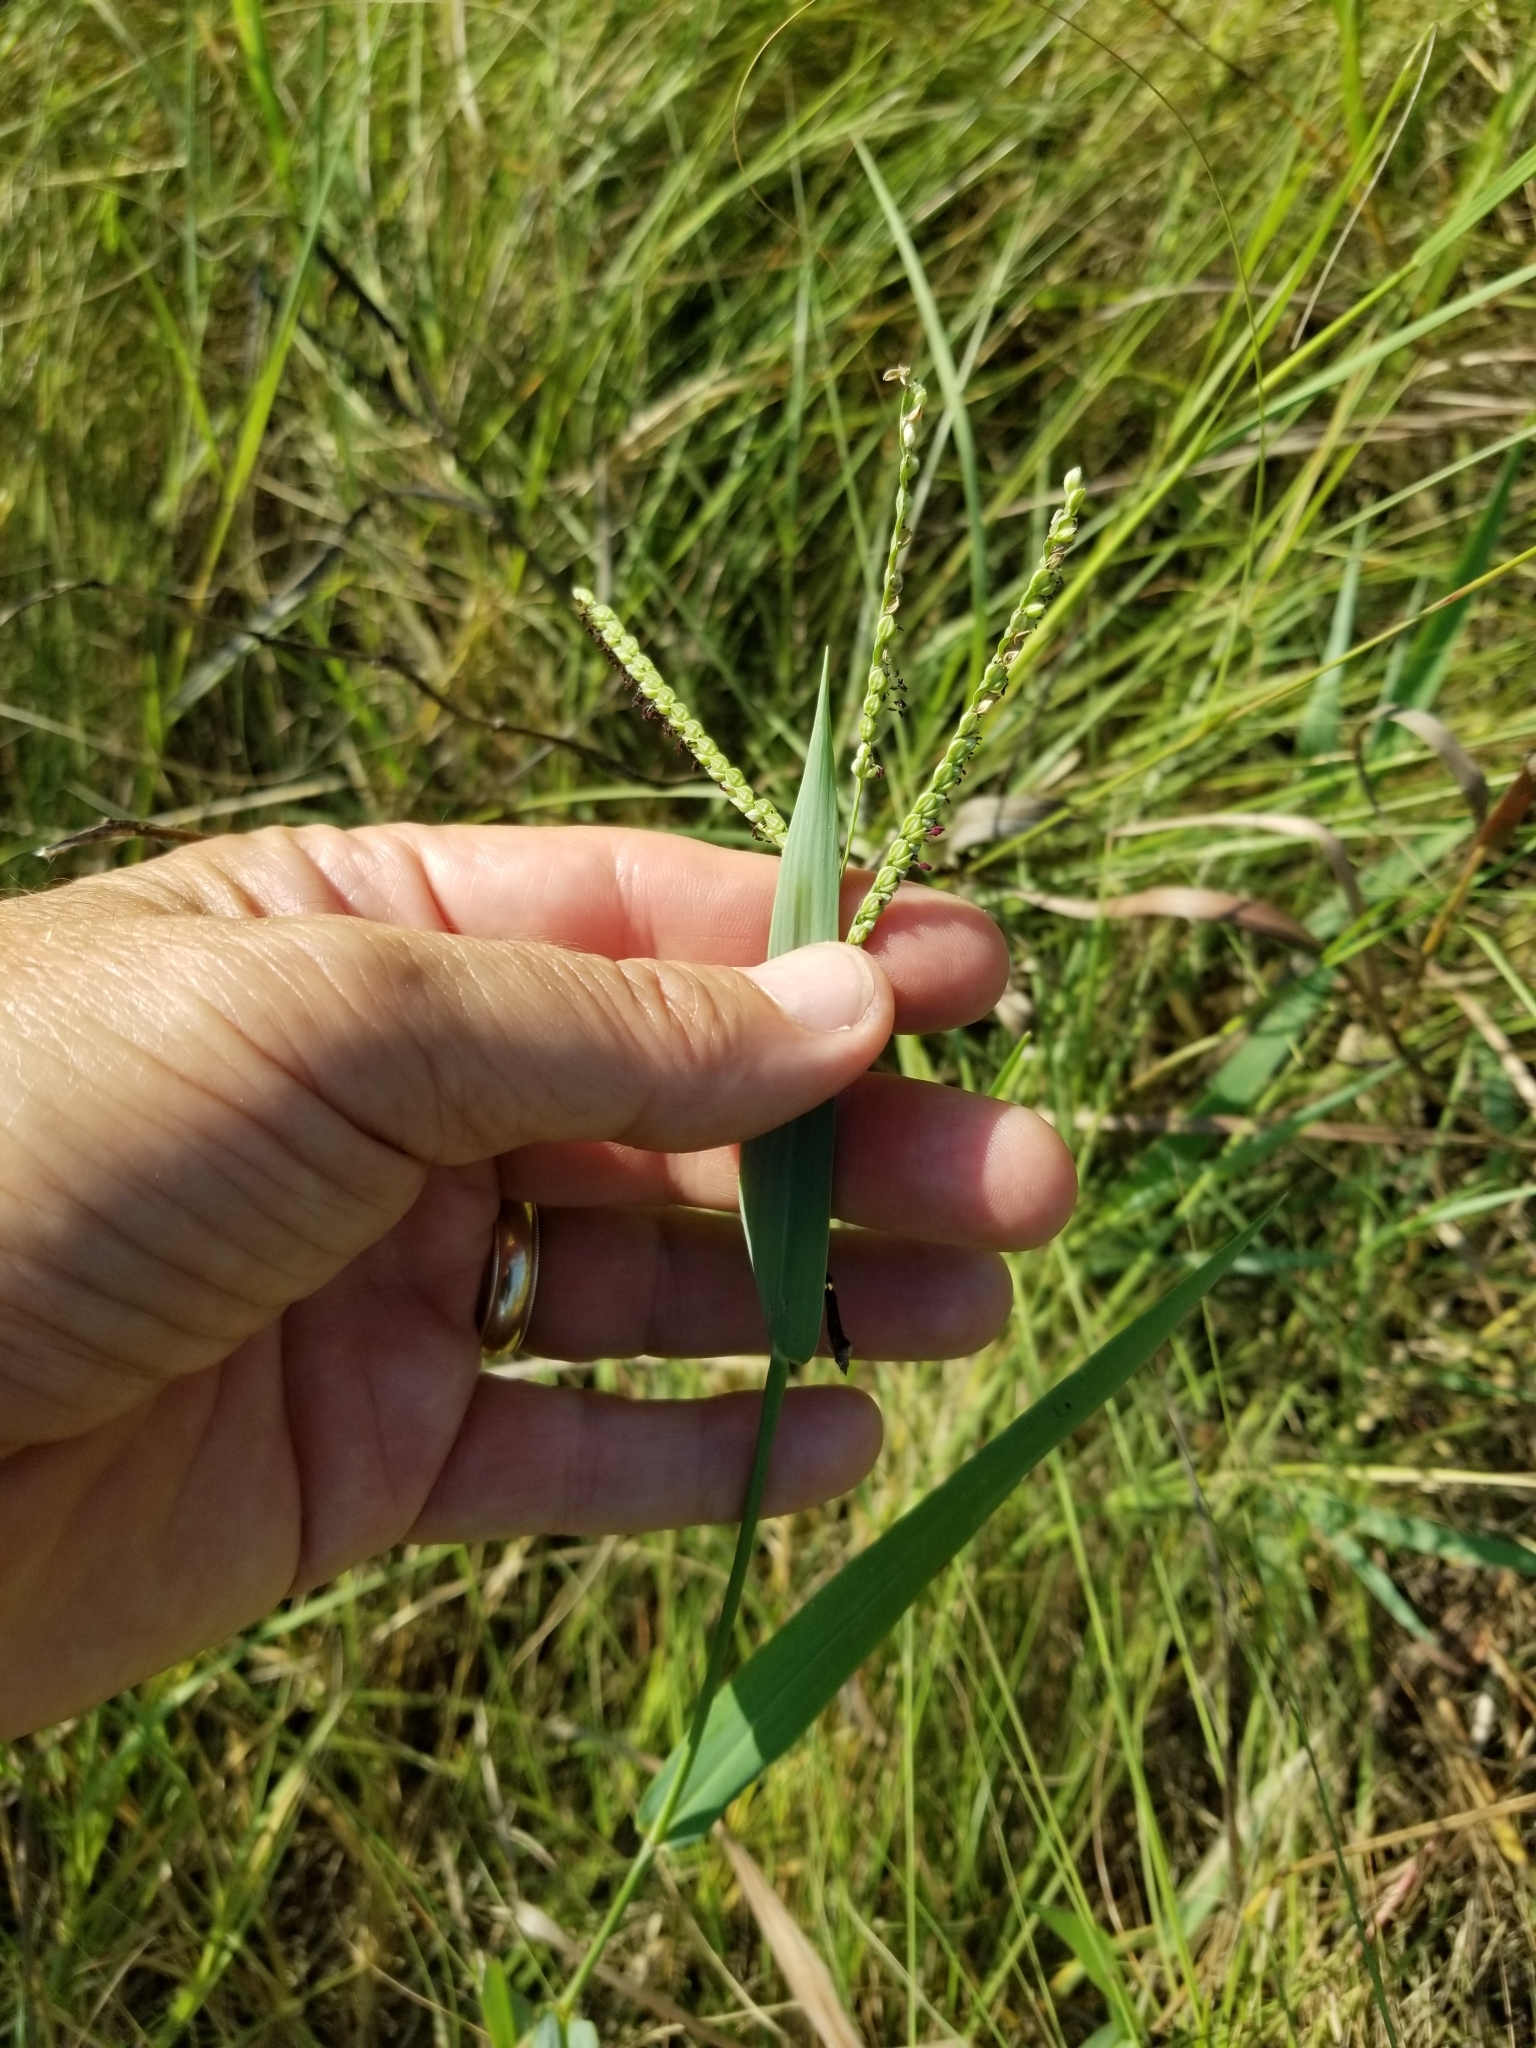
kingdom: Plantae
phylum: Tracheophyta
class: Liliopsida
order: Poales
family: Poaceae
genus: Paspalum
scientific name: Paspalum pubiflorum
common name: Hairy-seed paspalum
